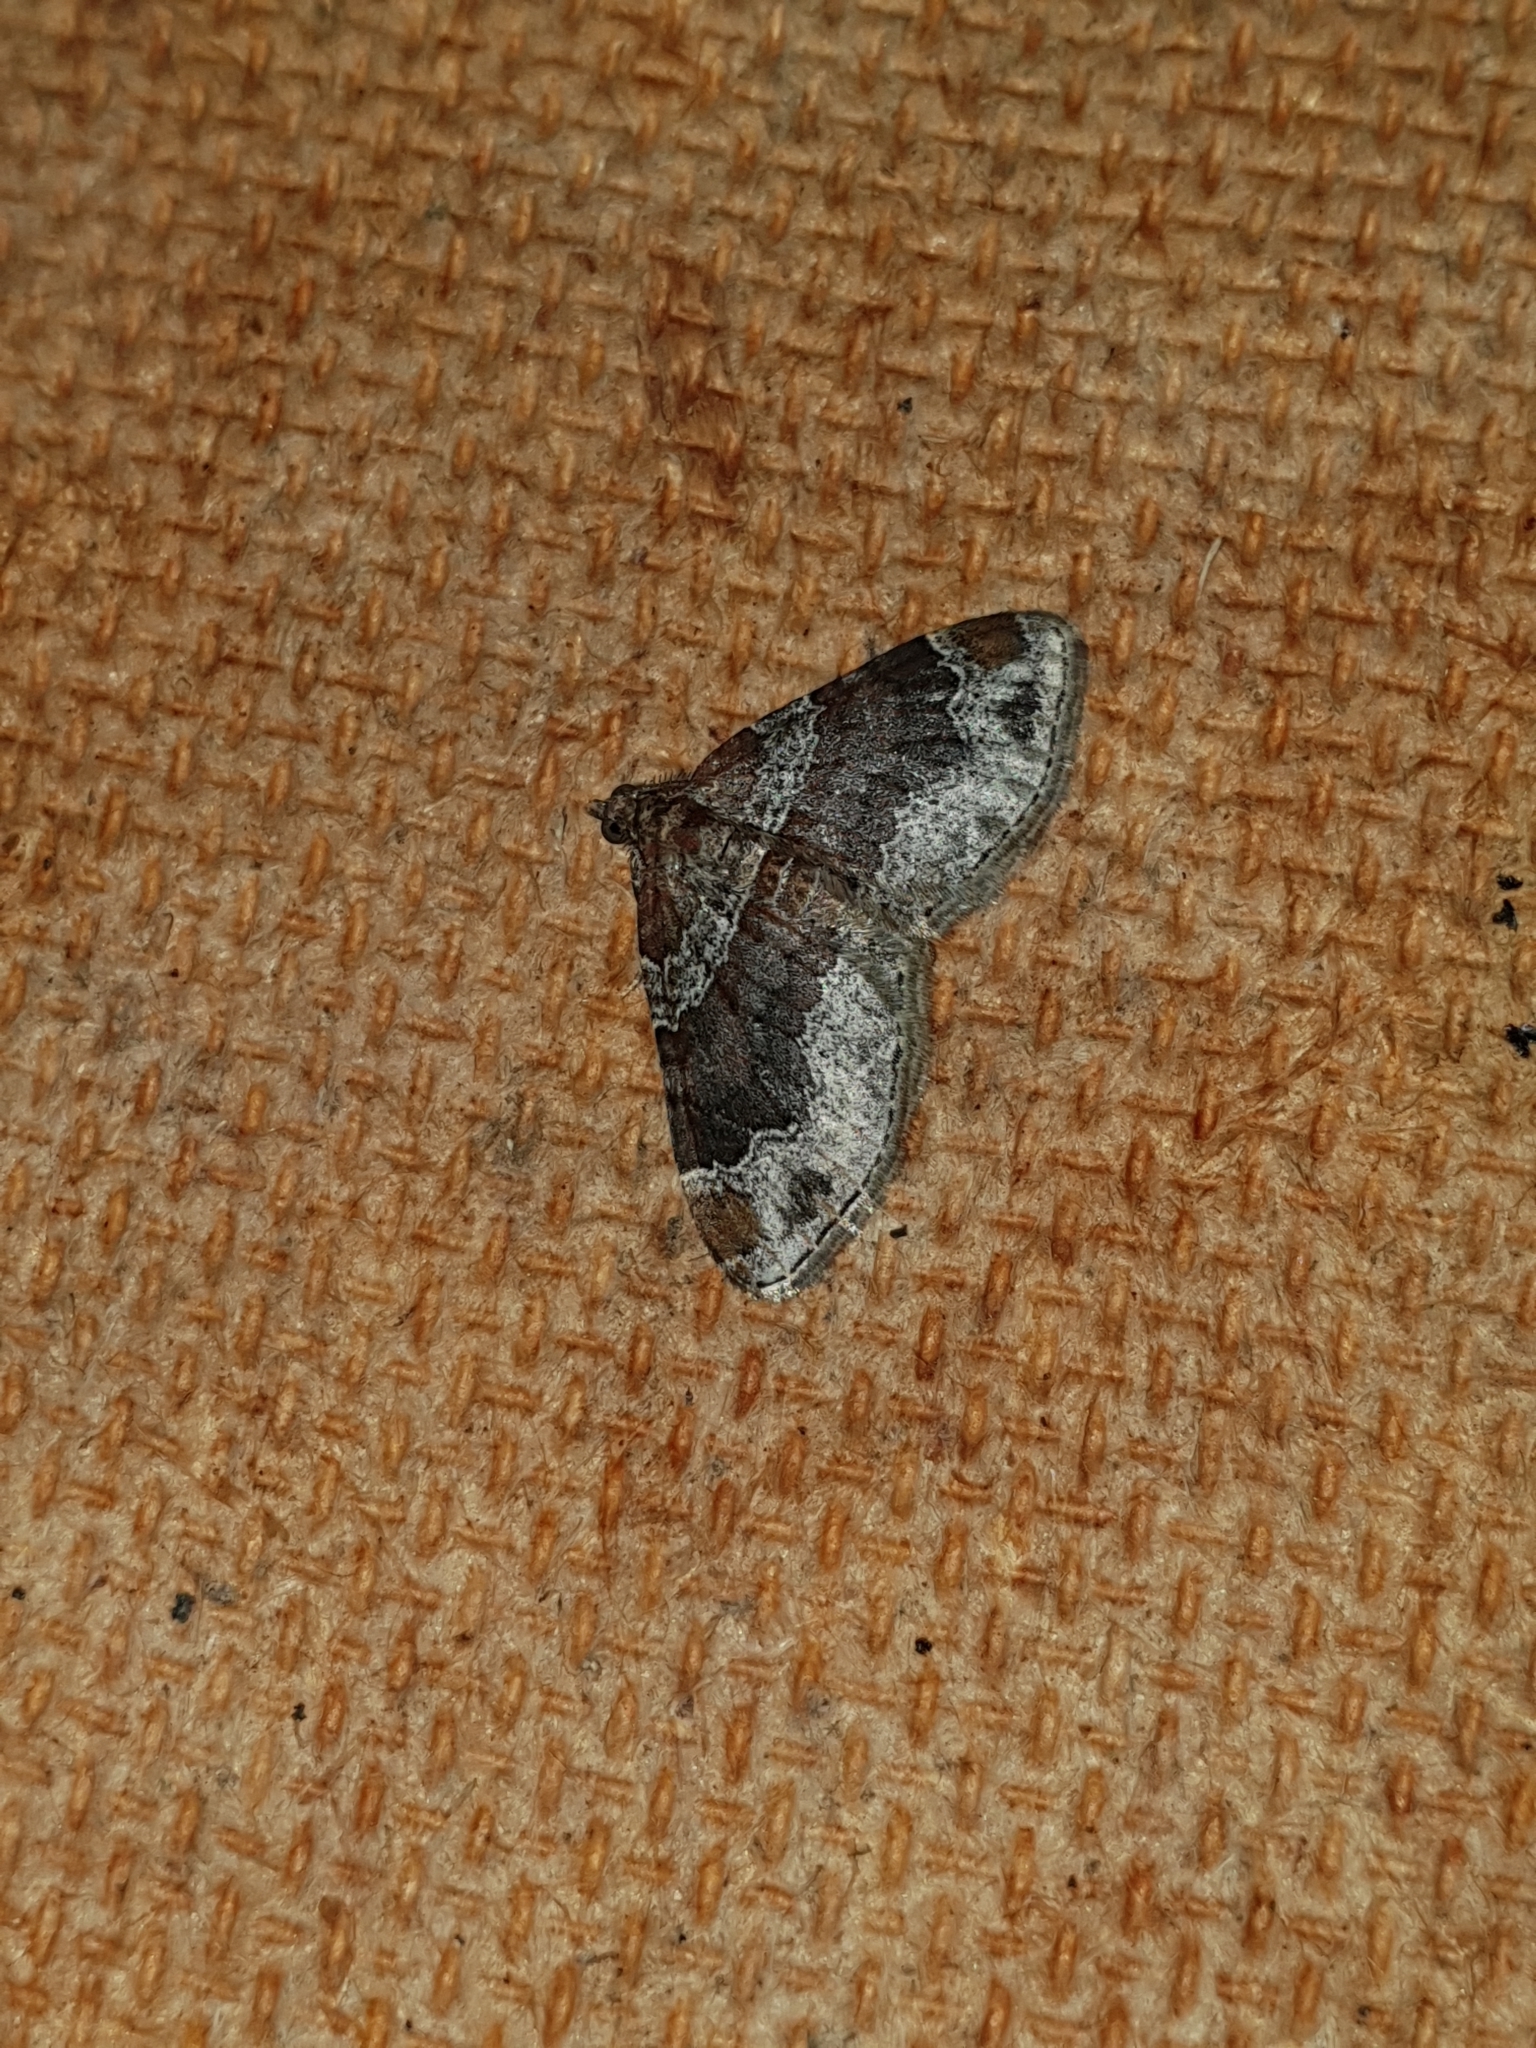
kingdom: Animalia
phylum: Arthropoda
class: Insecta
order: Lepidoptera
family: Geometridae
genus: Xanthorhoe
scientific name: Xanthorhoe ferrugata
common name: Dark-barred twin-spot carpet
